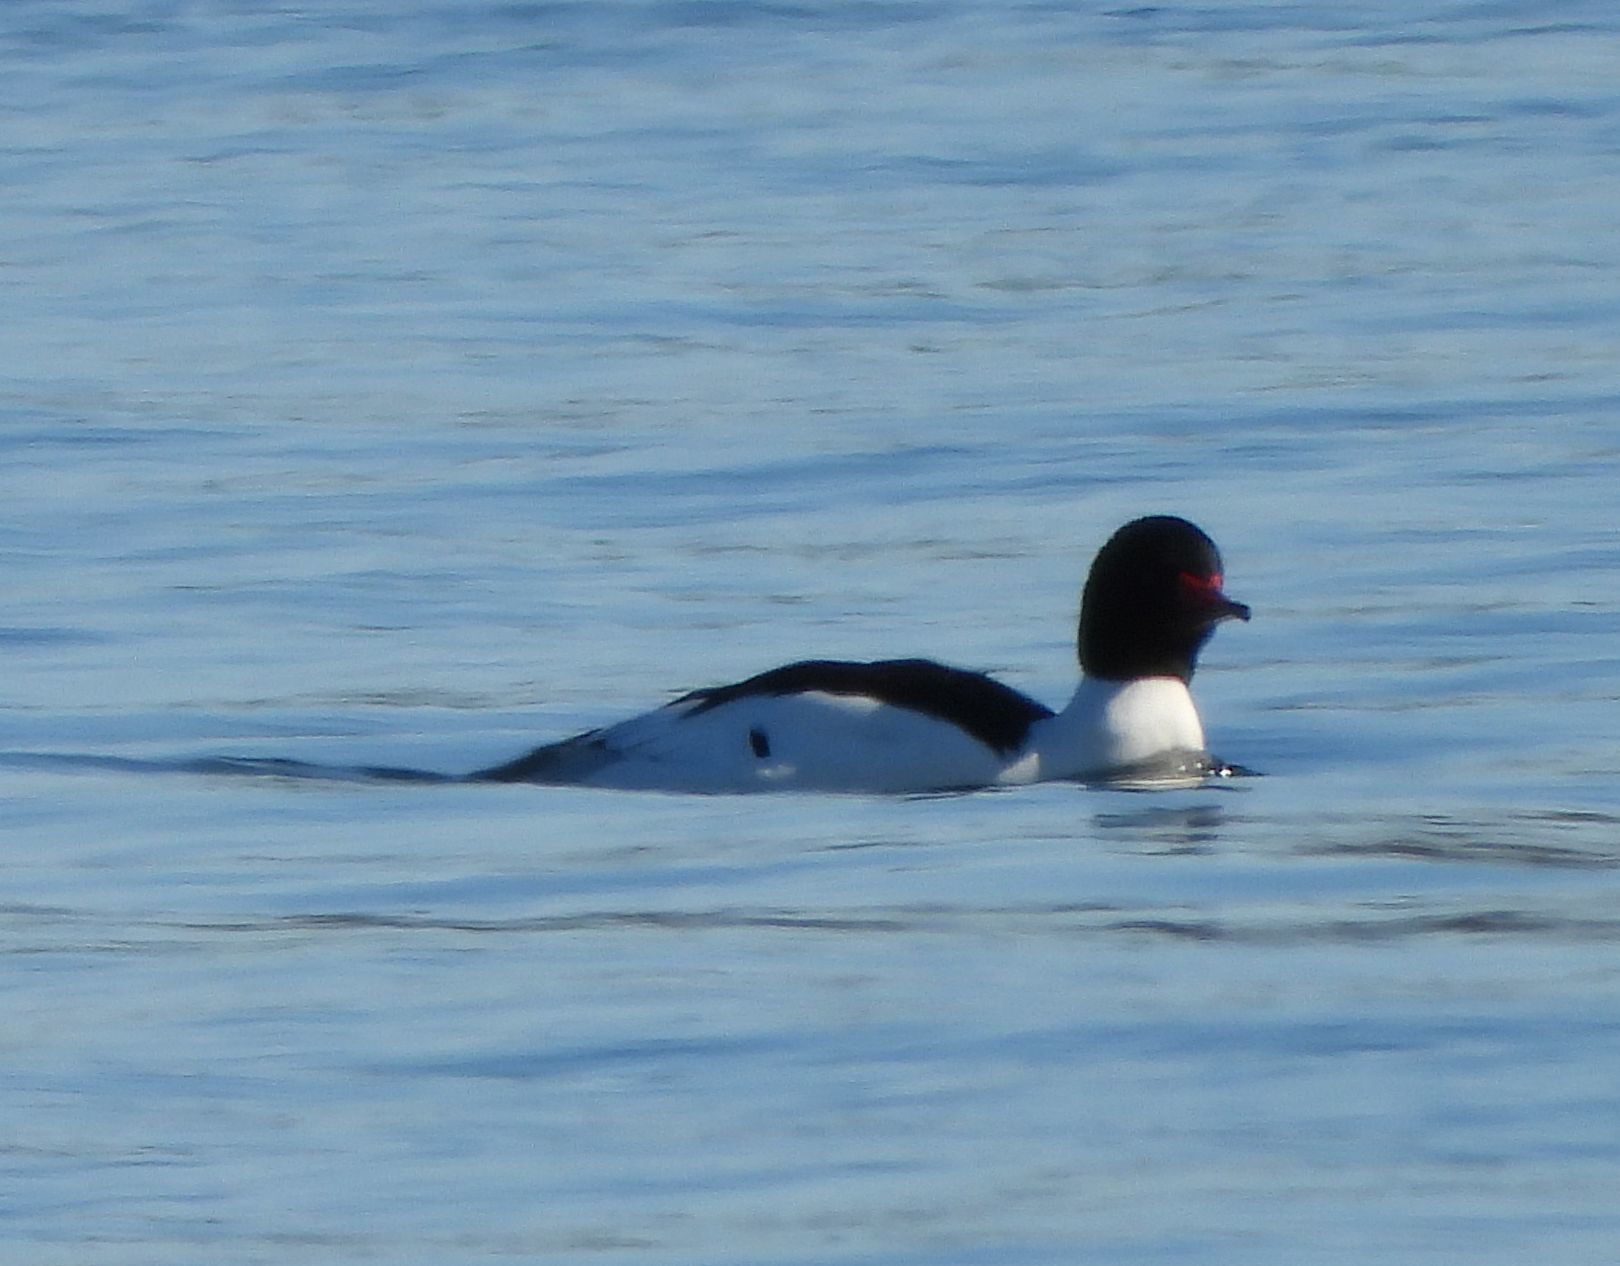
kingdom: Animalia
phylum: Chordata
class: Aves
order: Anseriformes
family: Anatidae
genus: Mergus
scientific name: Mergus merganser
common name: Common merganser
